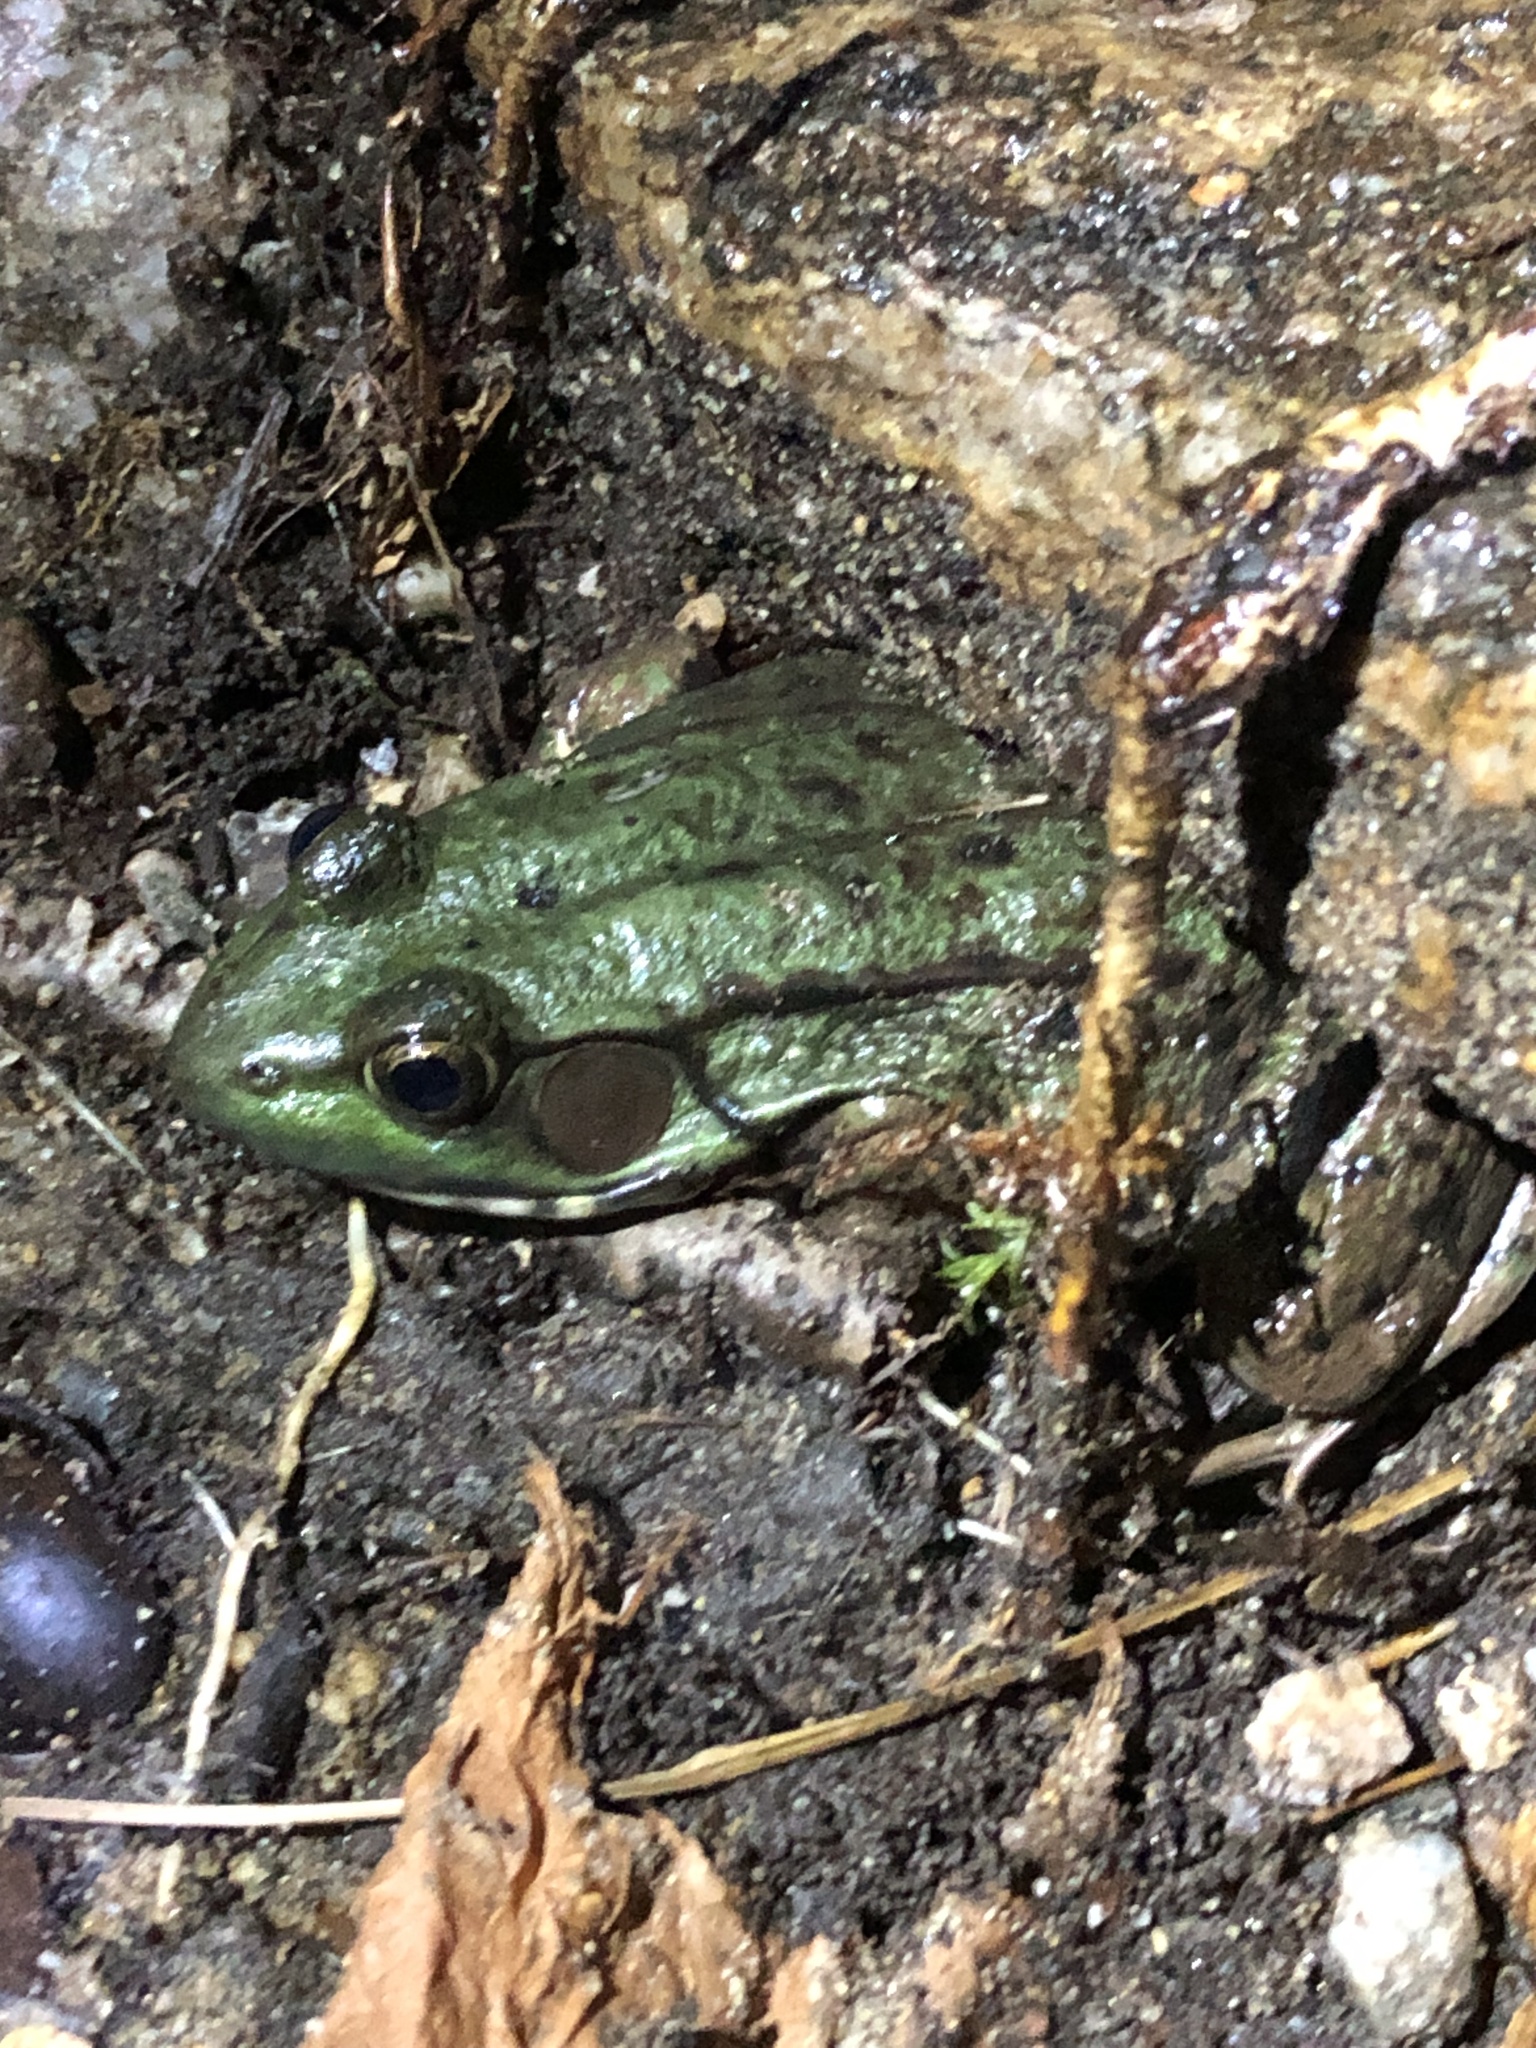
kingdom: Animalia
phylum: Chordata
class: Amphibia
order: Anura
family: Ranidae
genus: Lithobates
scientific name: Lithobates clamitans
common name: Green frog
